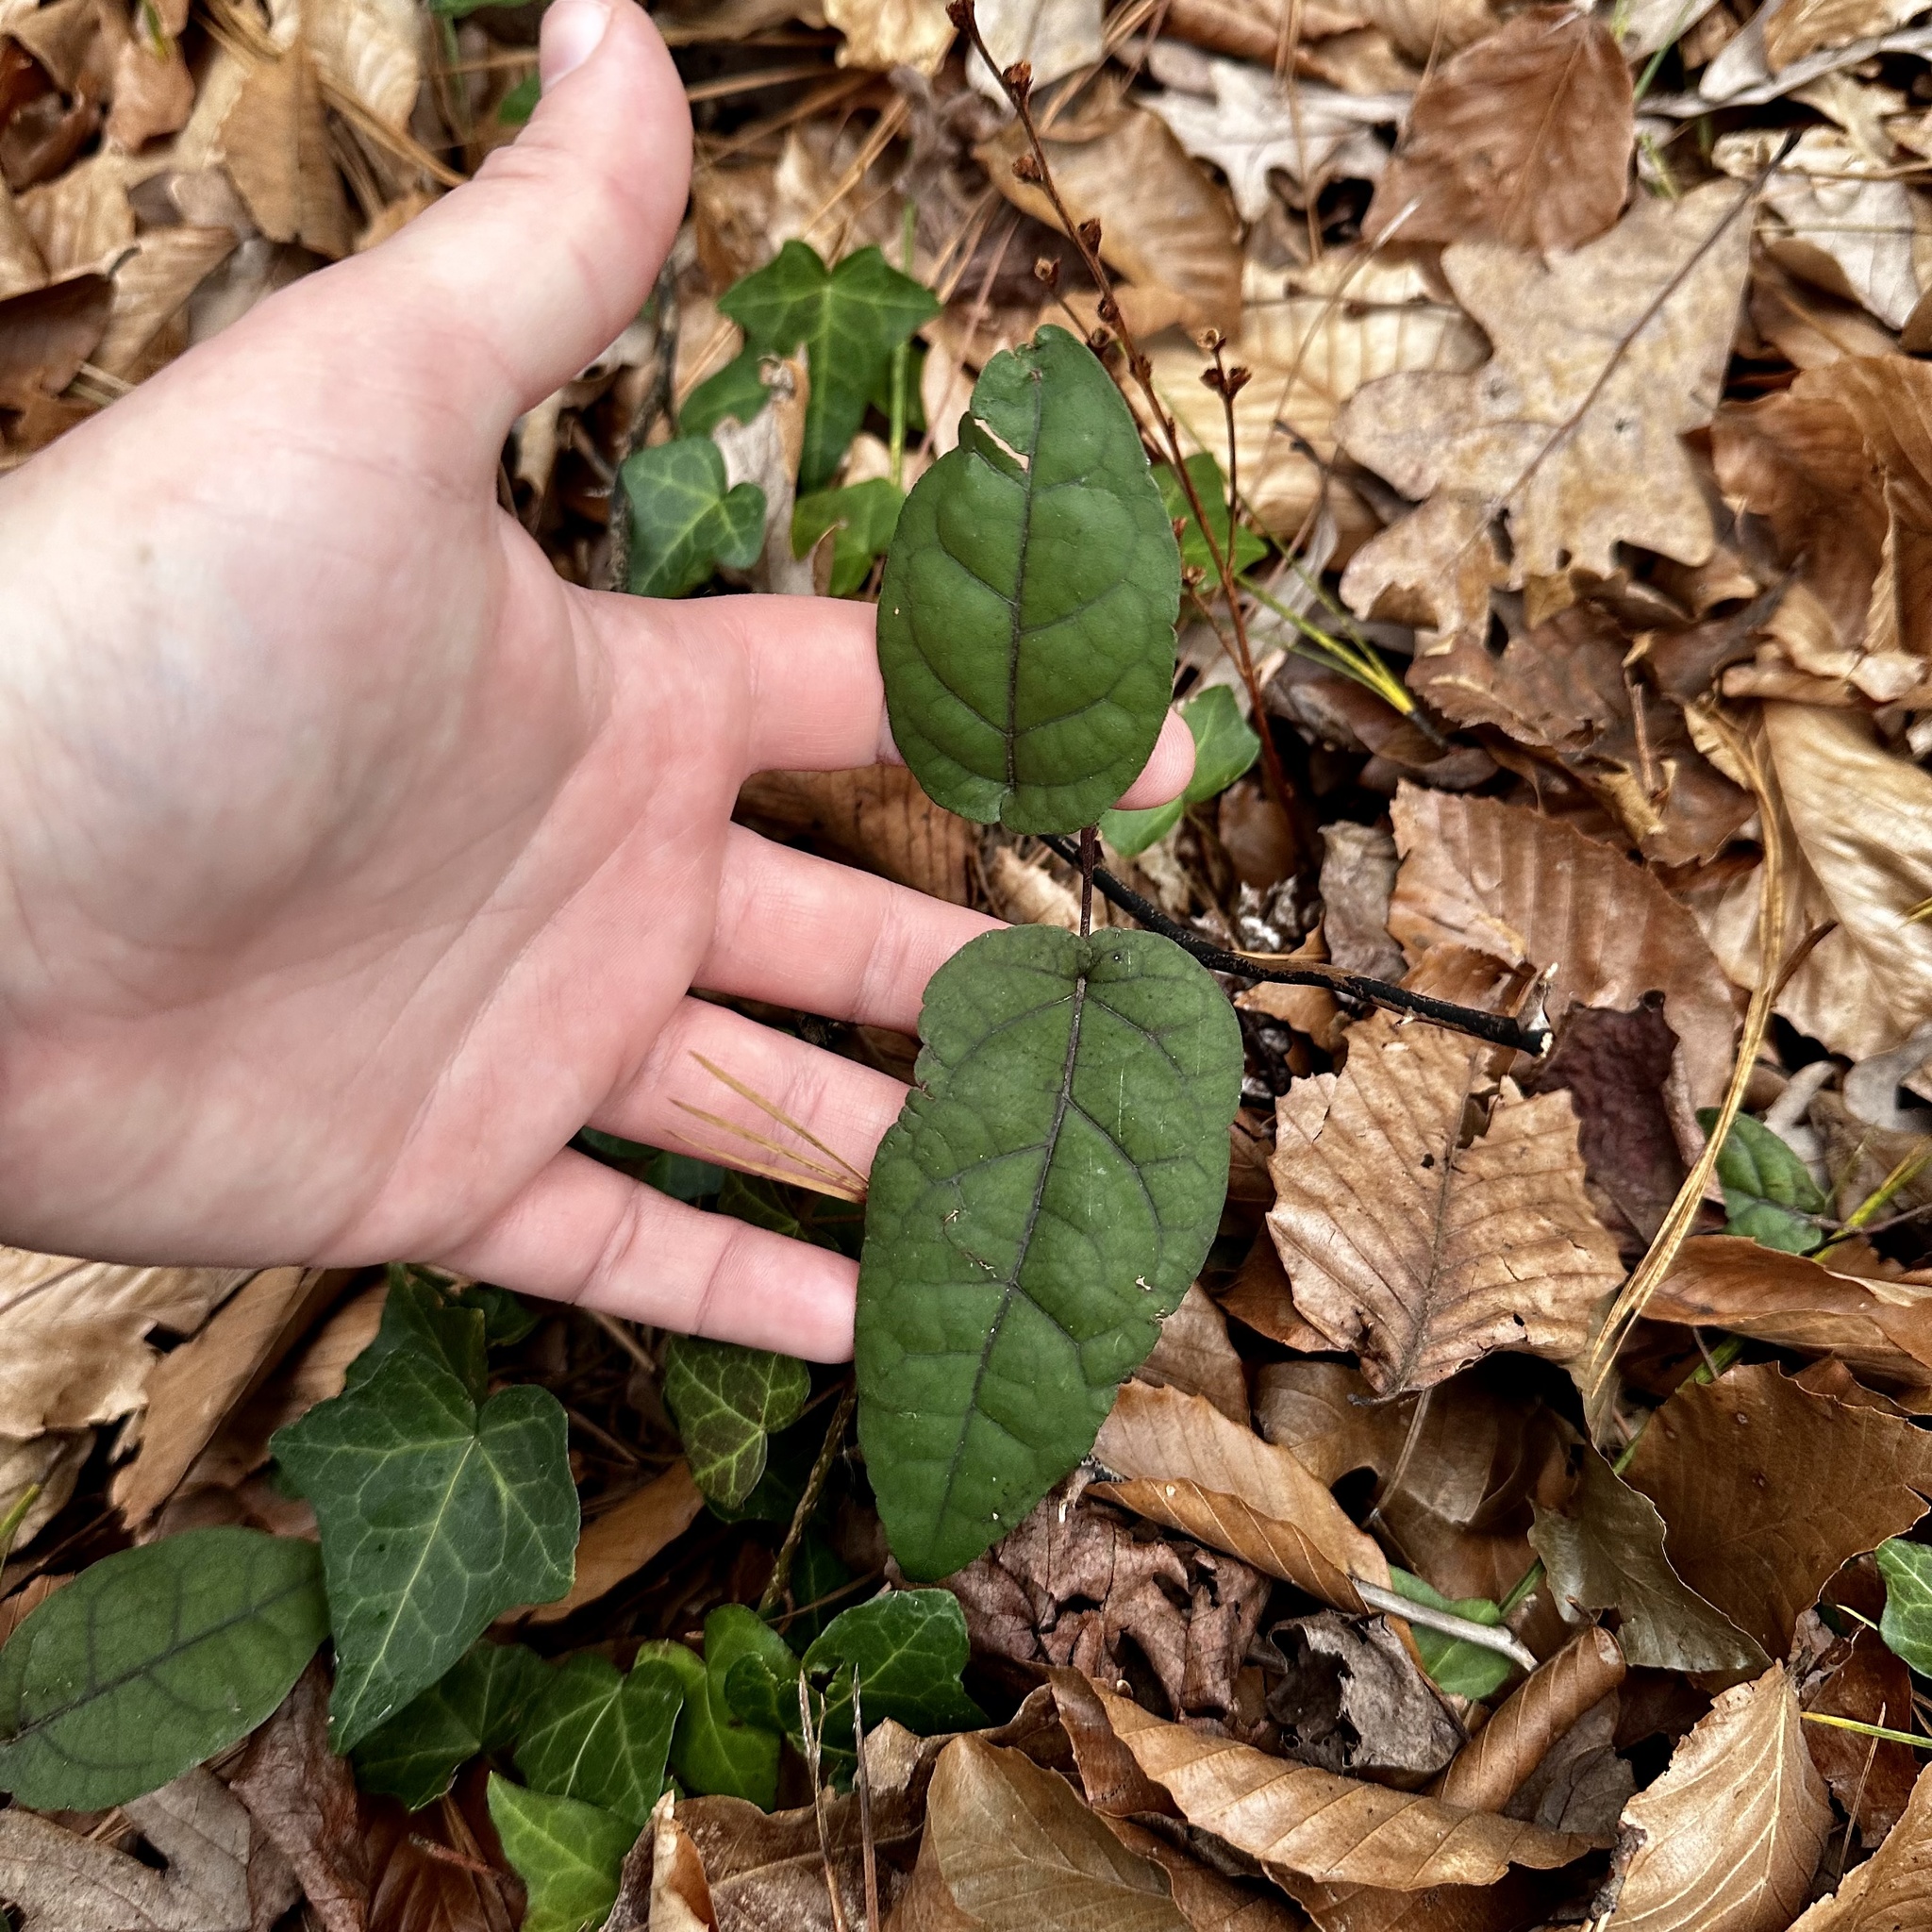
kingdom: Plantae
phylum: Tracheophyta
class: Magnoliopsida
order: Lamiales
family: Bignoniaceae
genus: Bignonia
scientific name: Bignonia capreolata
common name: Crossvine
